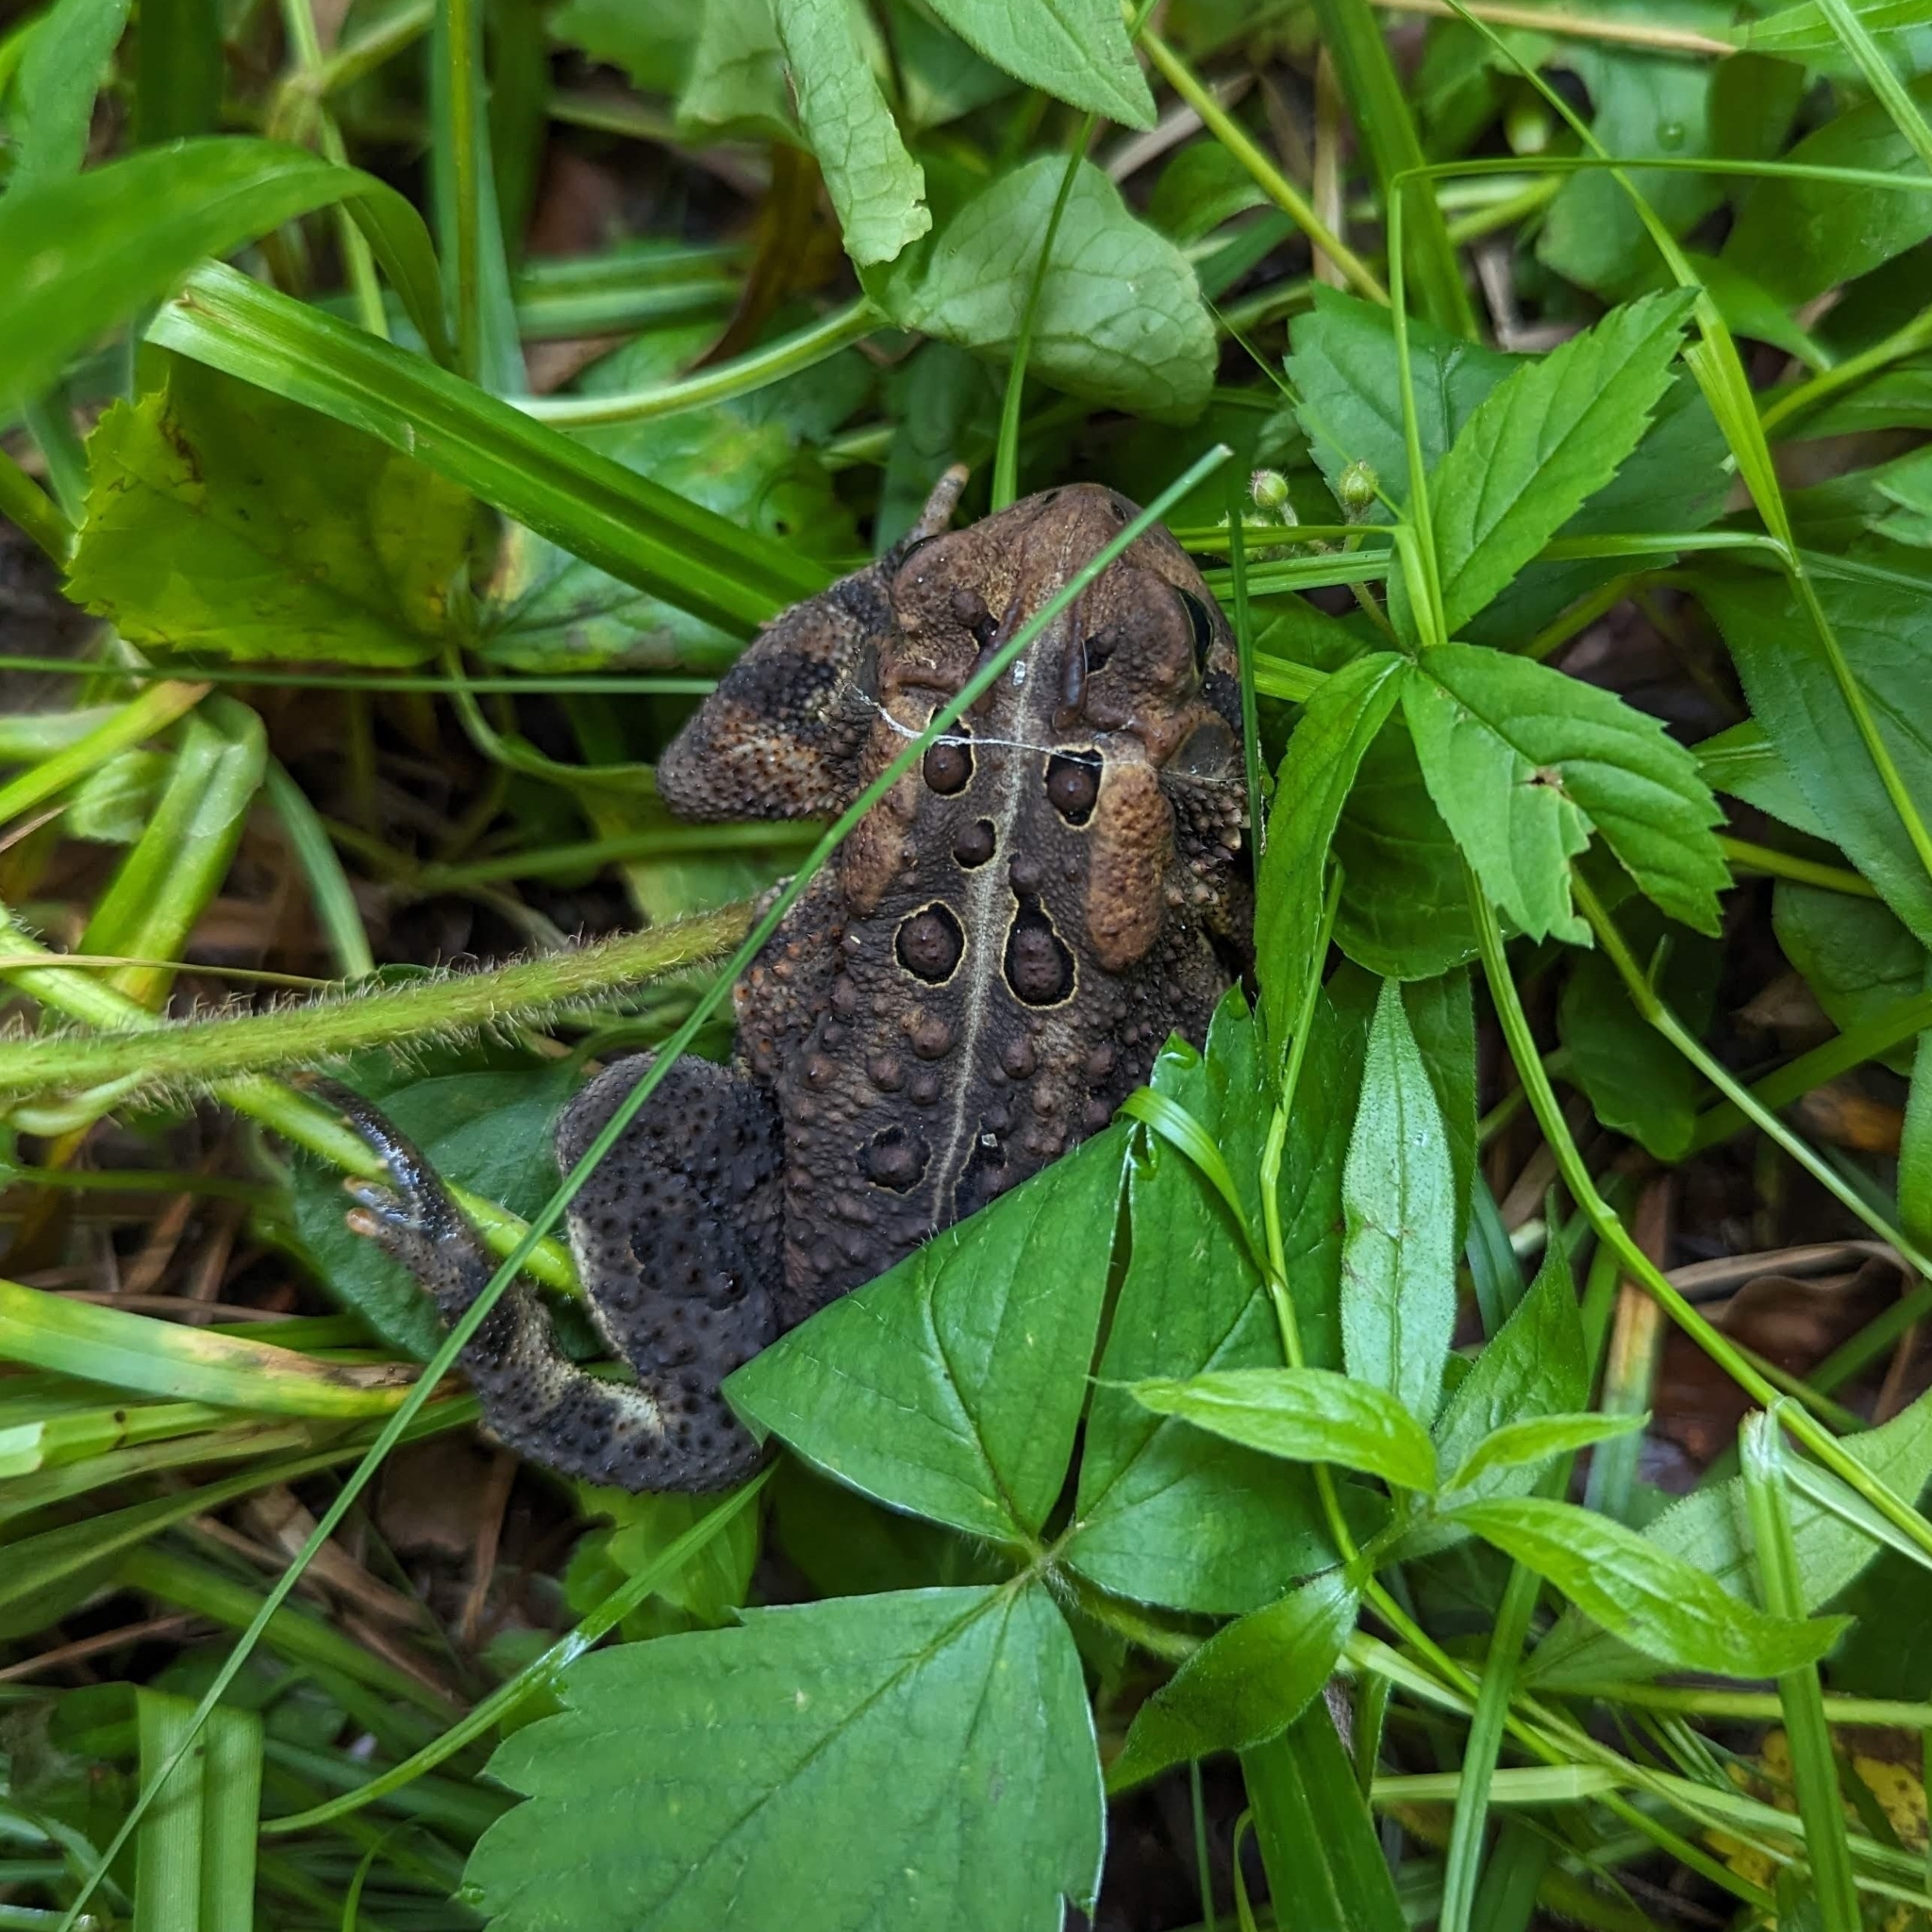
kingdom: Animalia
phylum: Chordata
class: Amphibia
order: Anura
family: Bufonidae
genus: Anaxyrus
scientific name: Anaxyrus americanus
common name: American toad
